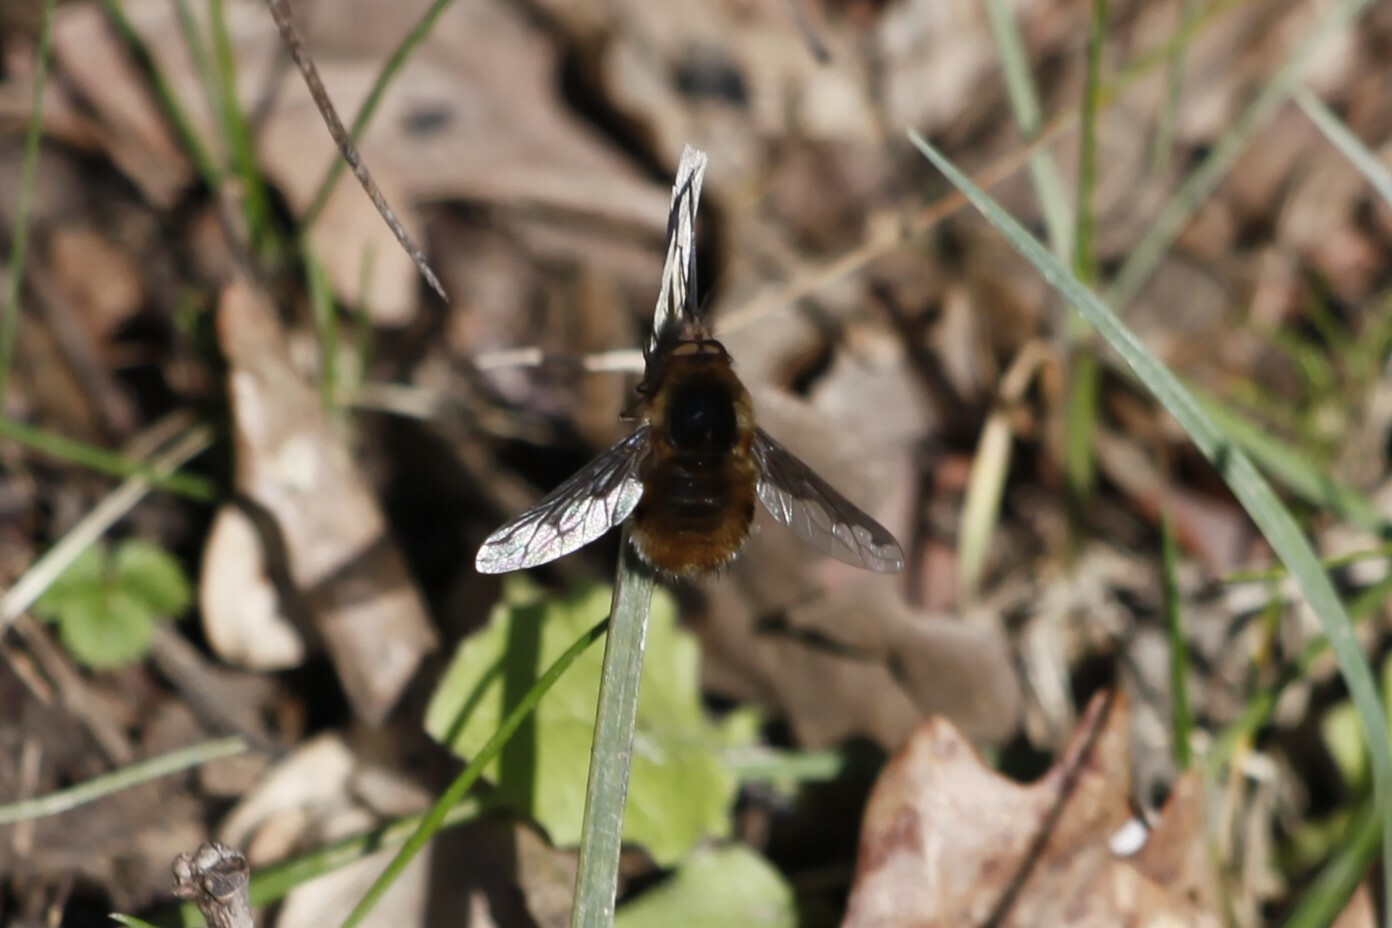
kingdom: Animalia
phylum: Arthropoda
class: Insecta
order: Diptera
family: Bombyliidae
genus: Bombylius
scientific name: Bombylius major
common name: Bee fly
